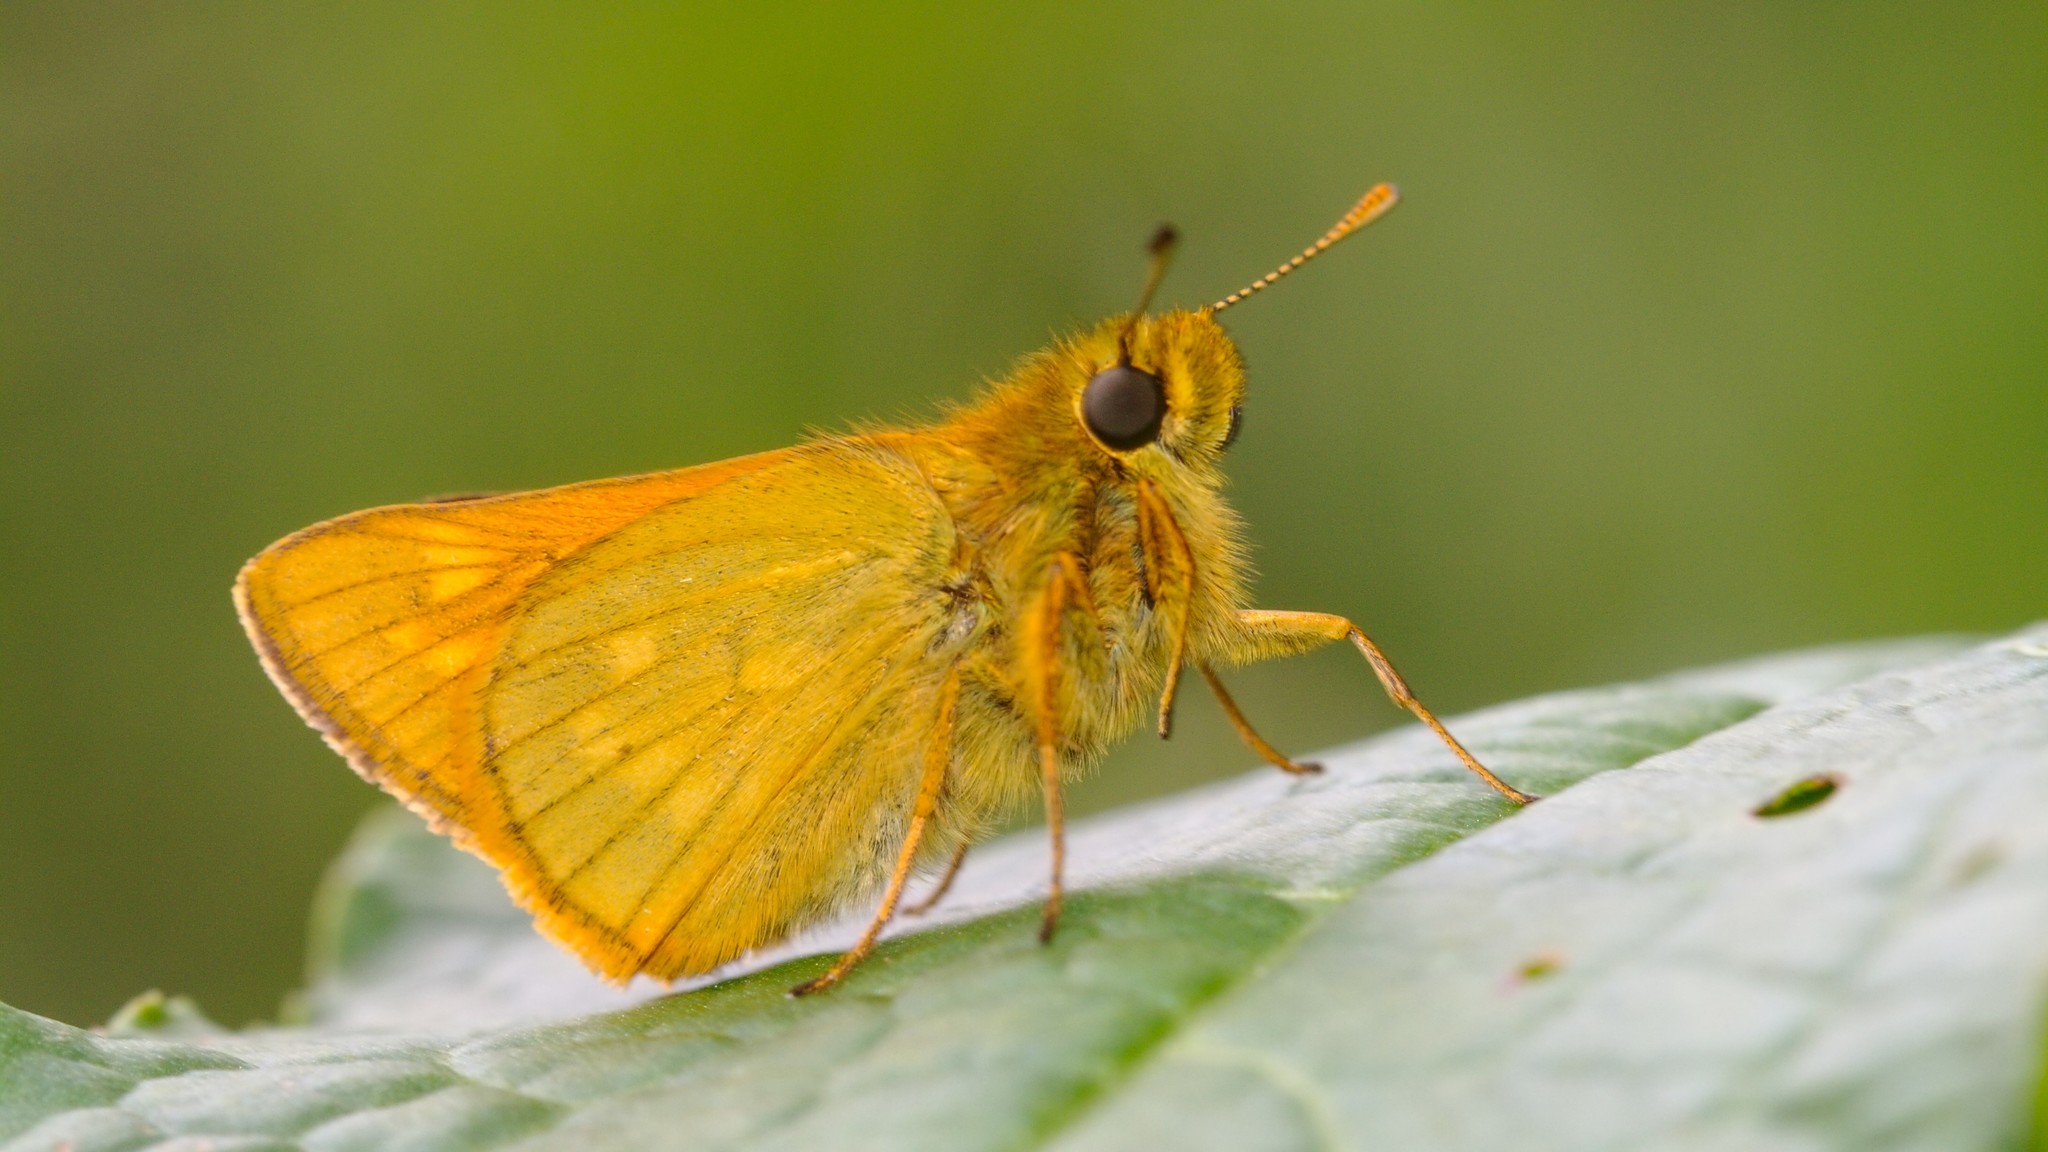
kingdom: Animalia
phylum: Arthropoda
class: Insecta
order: Lepidoptera
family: Hesperiidae
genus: Ochlodes
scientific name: Ochlodes venata
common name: Large skipper
